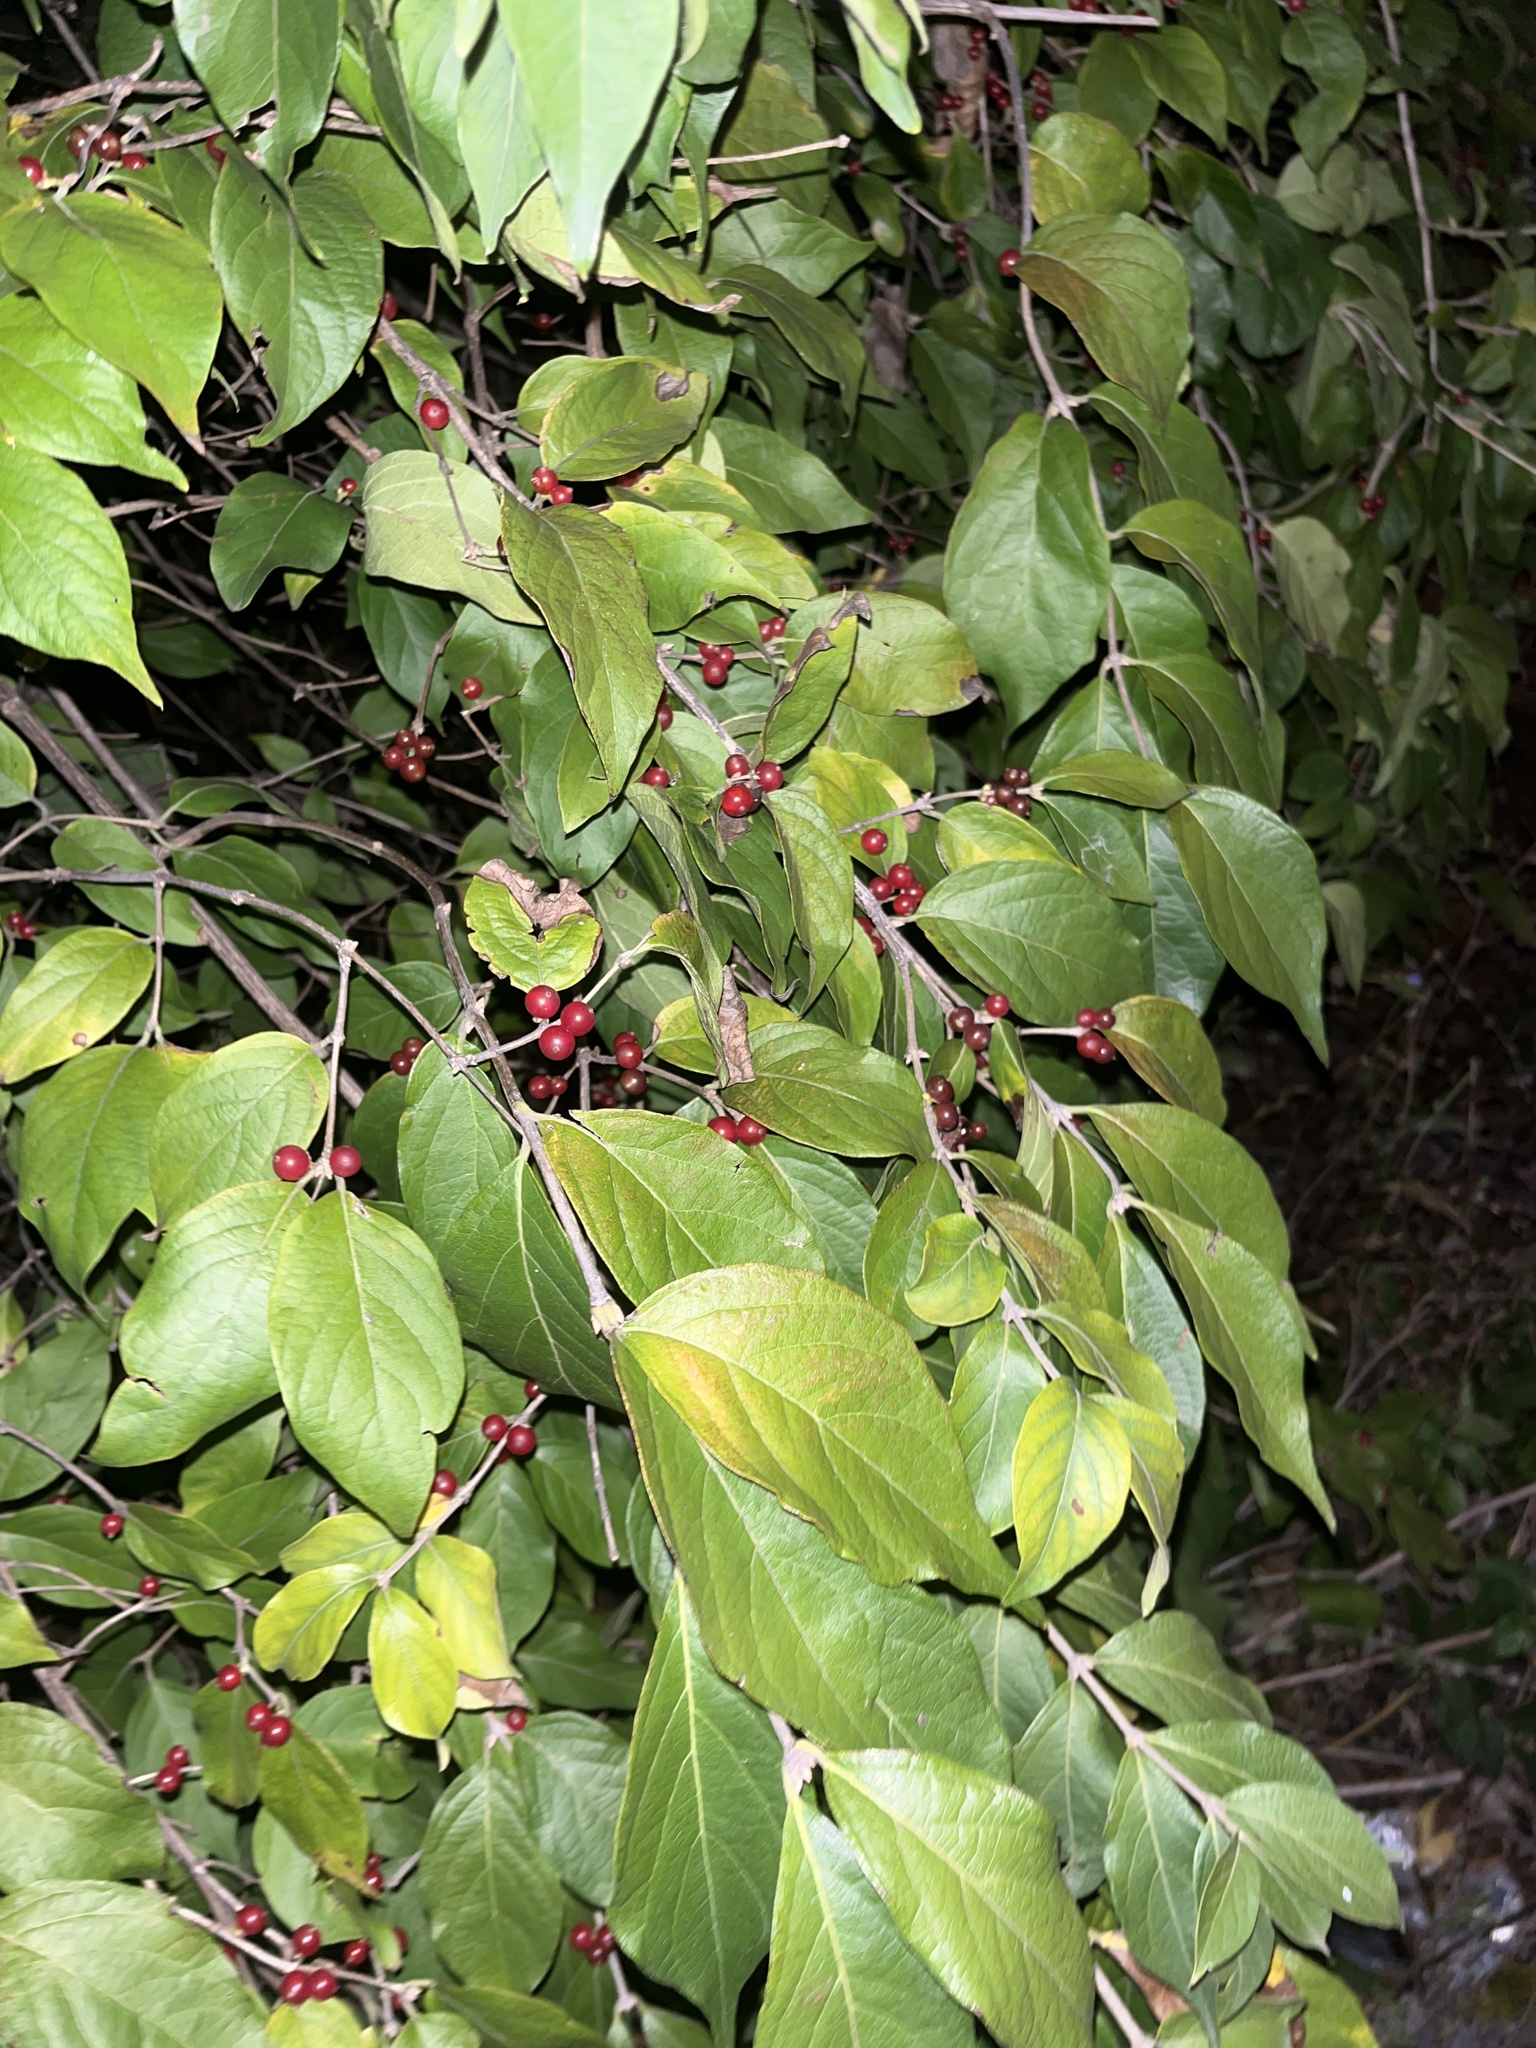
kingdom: Plantae
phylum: Tracheophyta
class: Magnoliopsida
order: Dipsacales
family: Caprifoliaceae
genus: Lonicera
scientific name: Lonicera maackii
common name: Amur honeysuckle
